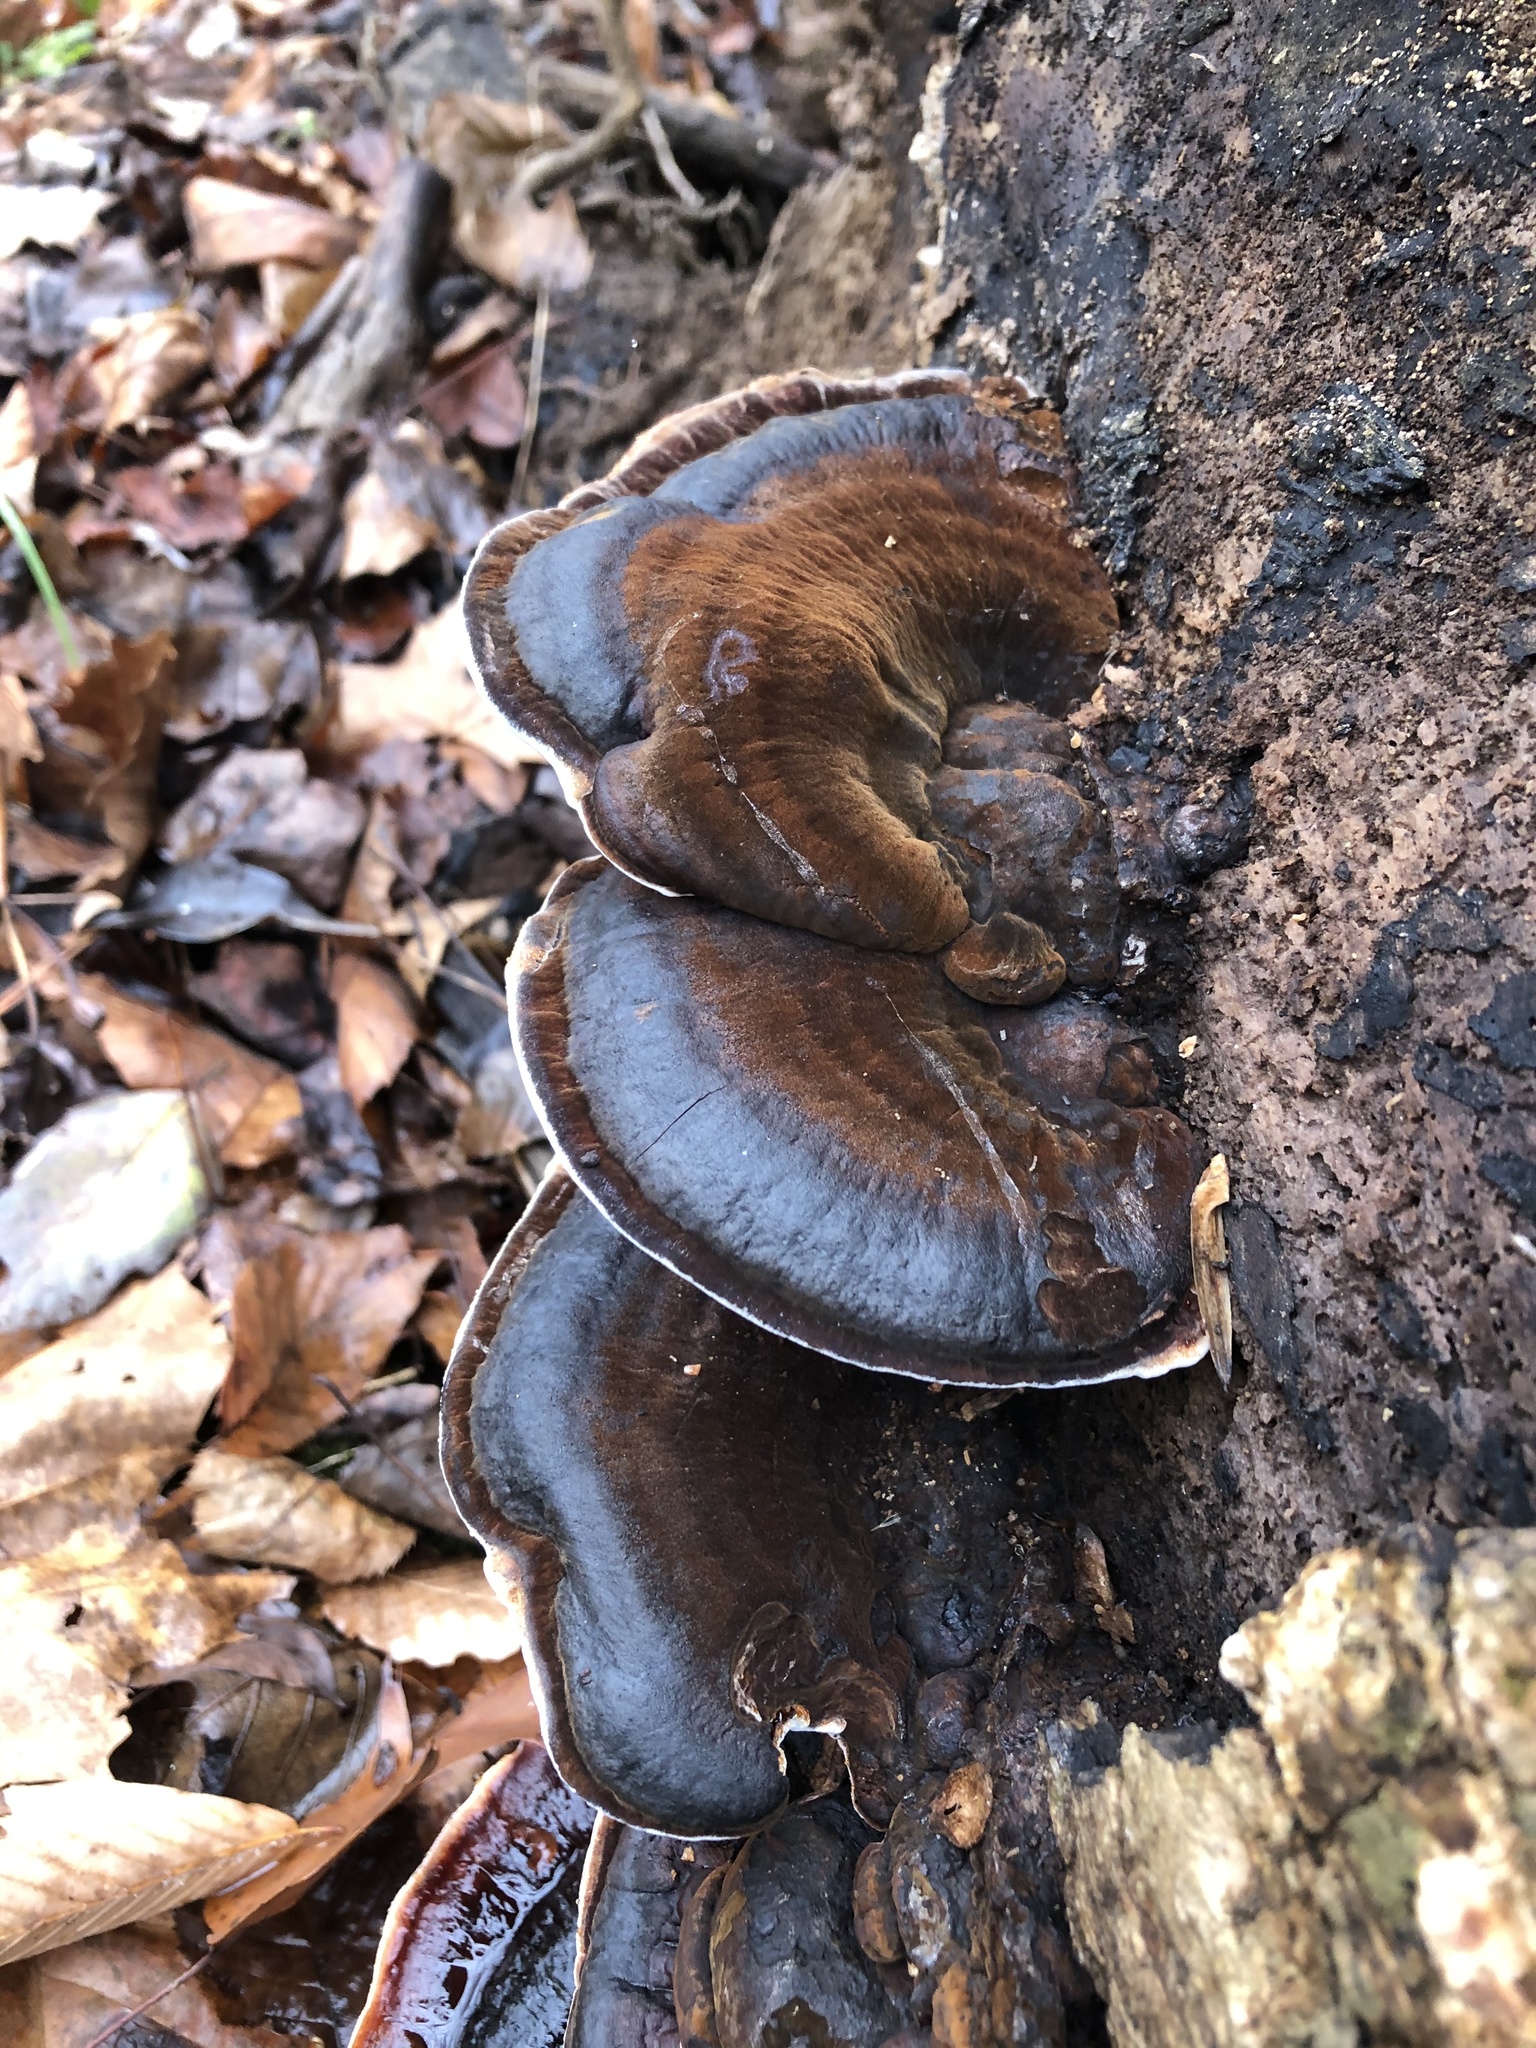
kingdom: Fungi
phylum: Basidiomycota
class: Agaricomycetes
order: Polyporales
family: Ischnodermataceae
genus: Ischnoderma
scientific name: Ischnoderma resinosum
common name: Resinous polypore
